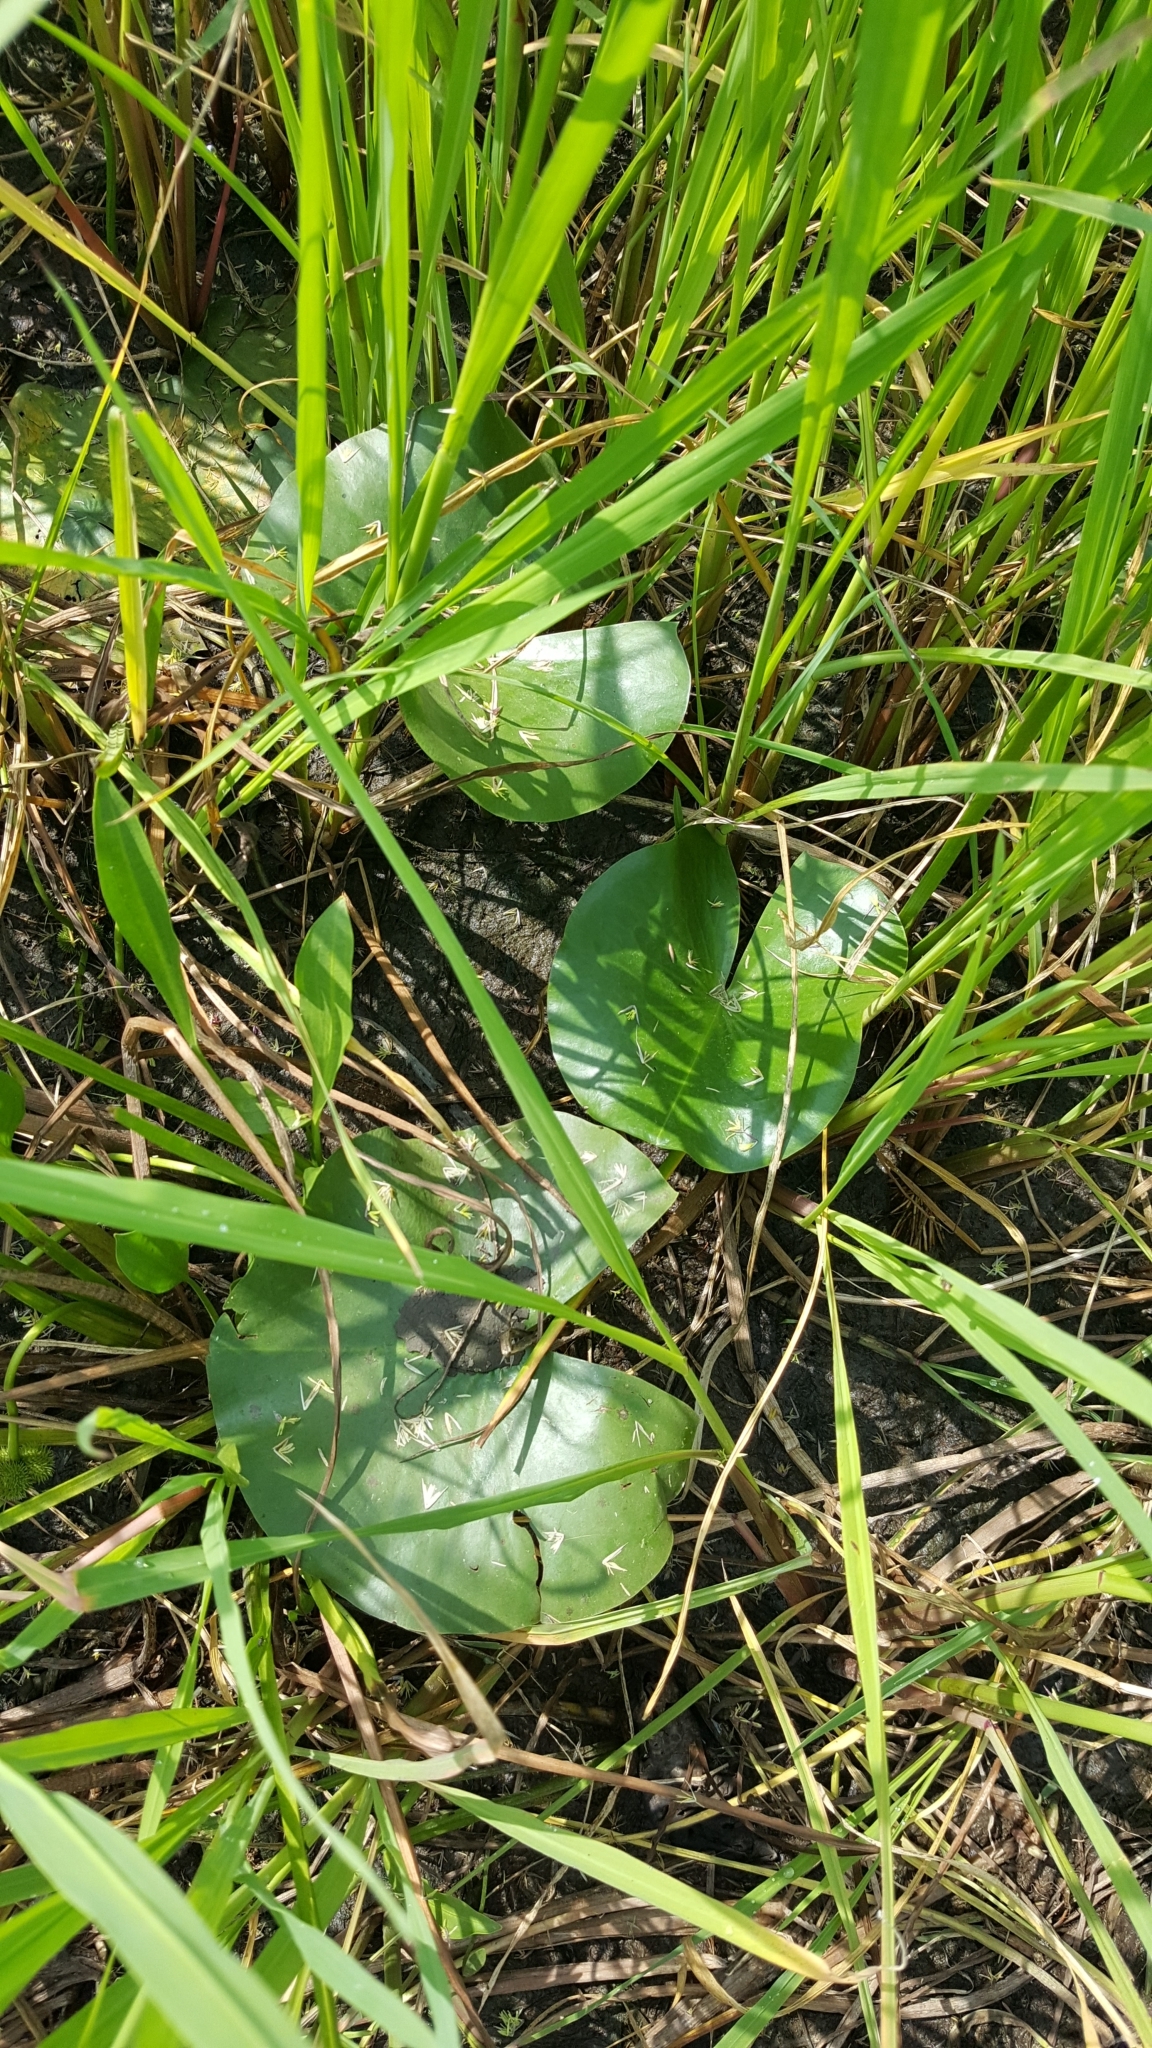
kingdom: Plantae
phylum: Tracheophyta
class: Magnoliopsida
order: Nymphaeales
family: Nymphaeaceae
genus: Nymphaea
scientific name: Nymphaea odorata
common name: Fragrant water-lily
